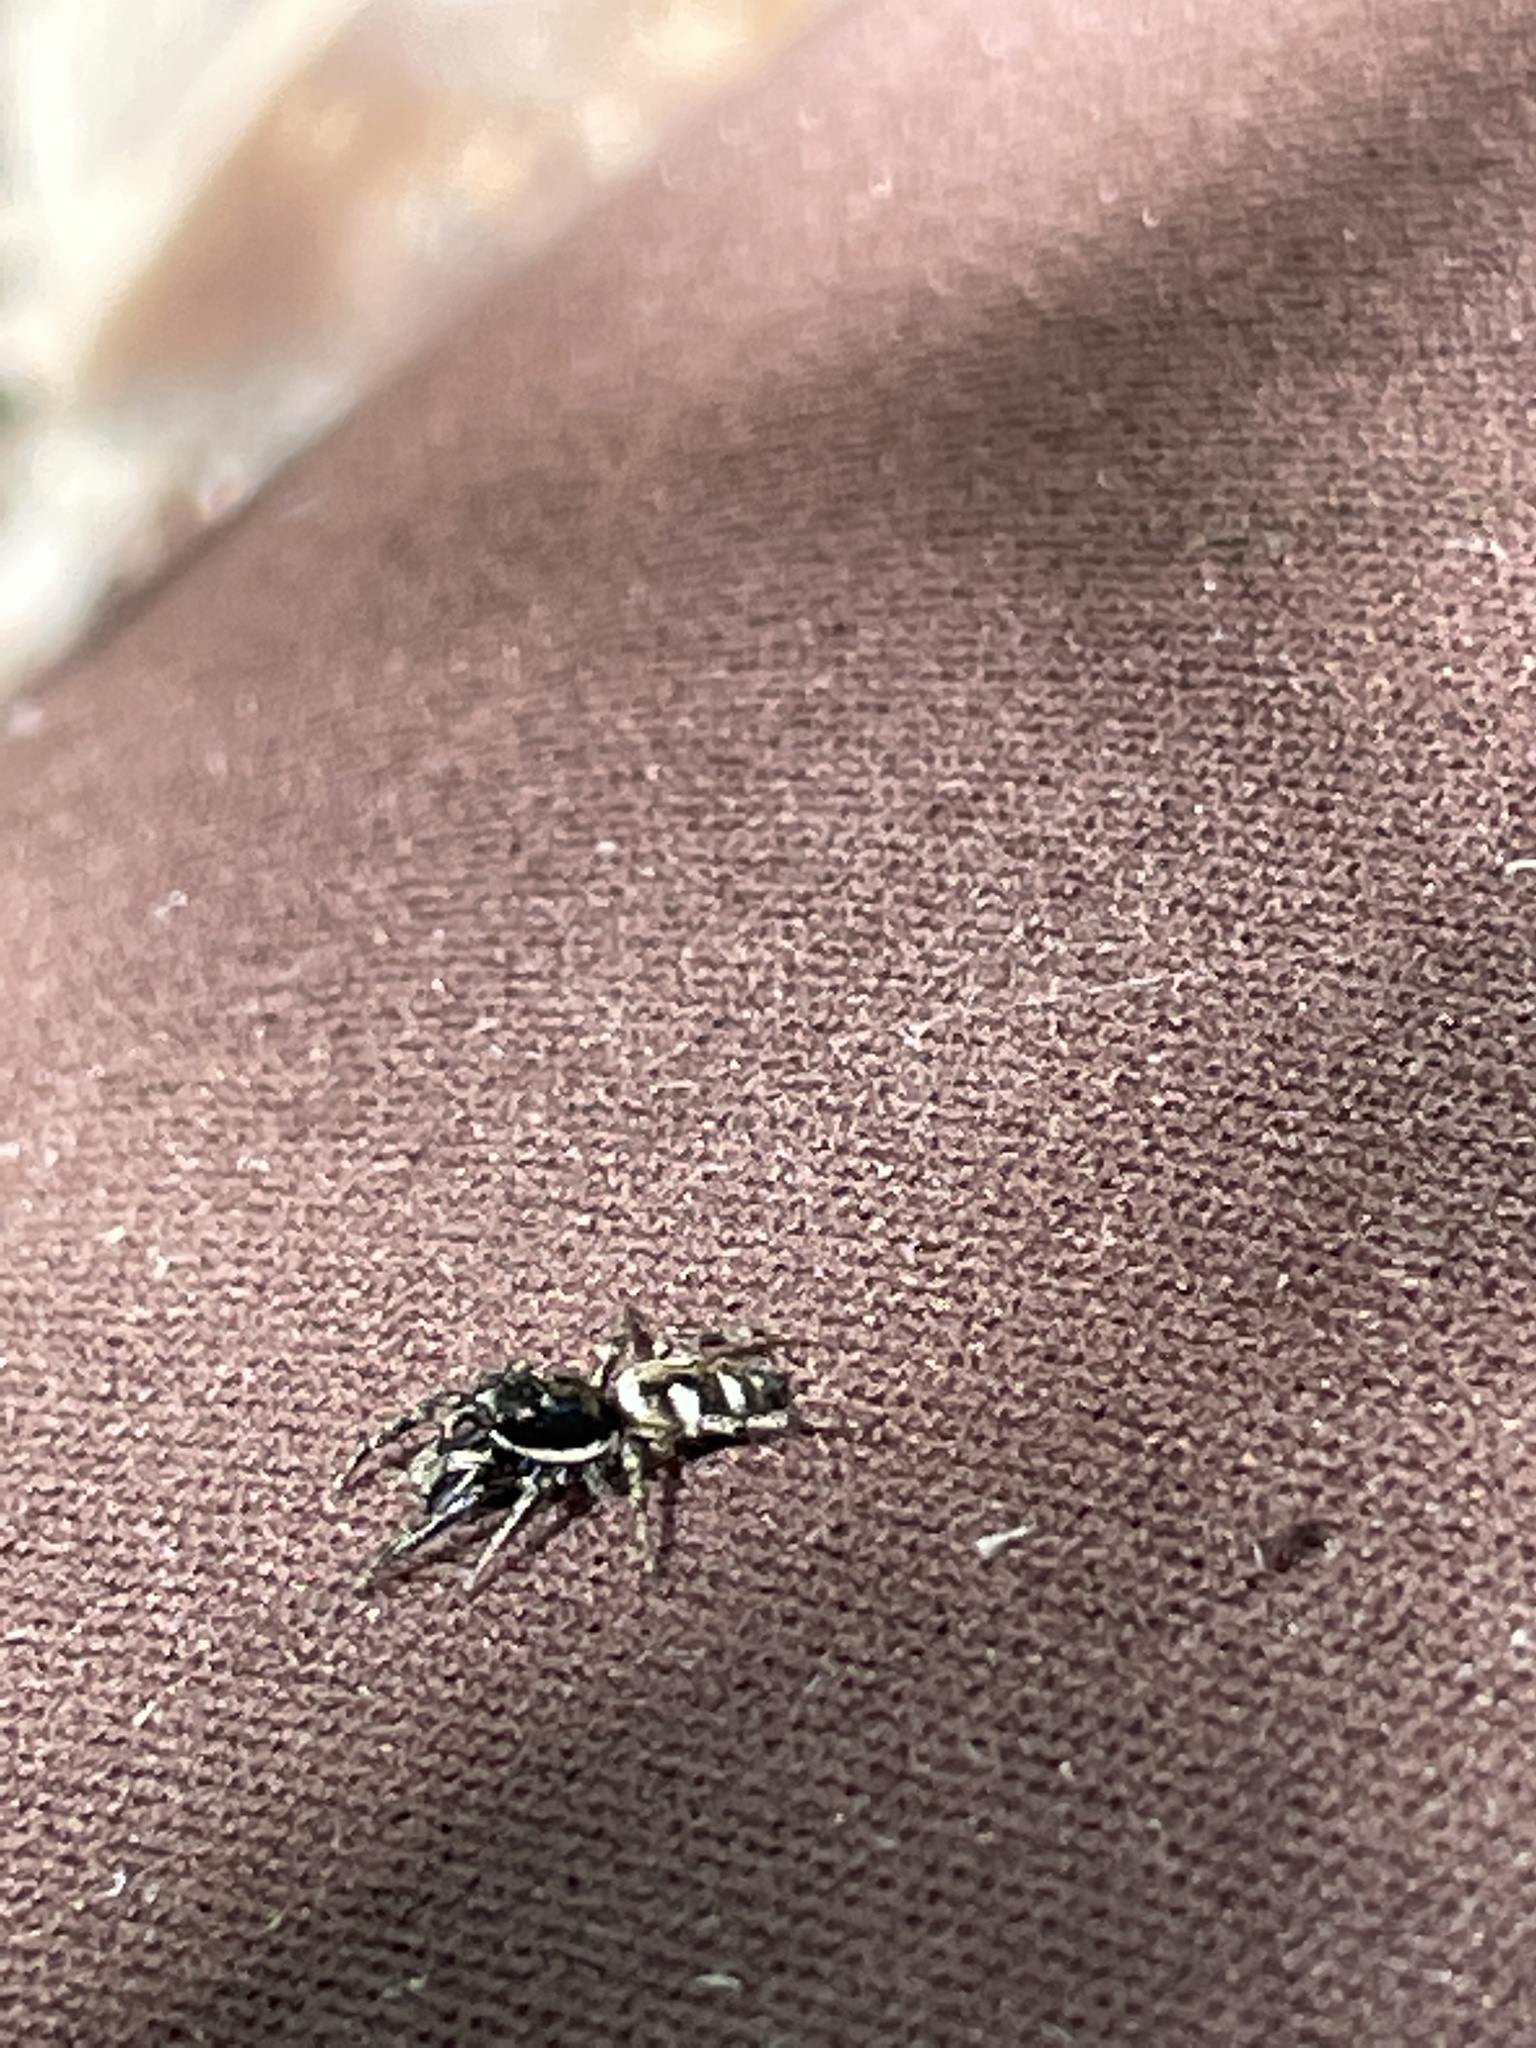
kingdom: Animalia
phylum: Arthropoda
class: Arachnida
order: Araneae
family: Salticidae
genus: Salticus
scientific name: Salticus scenicus
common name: Zebra jumper
